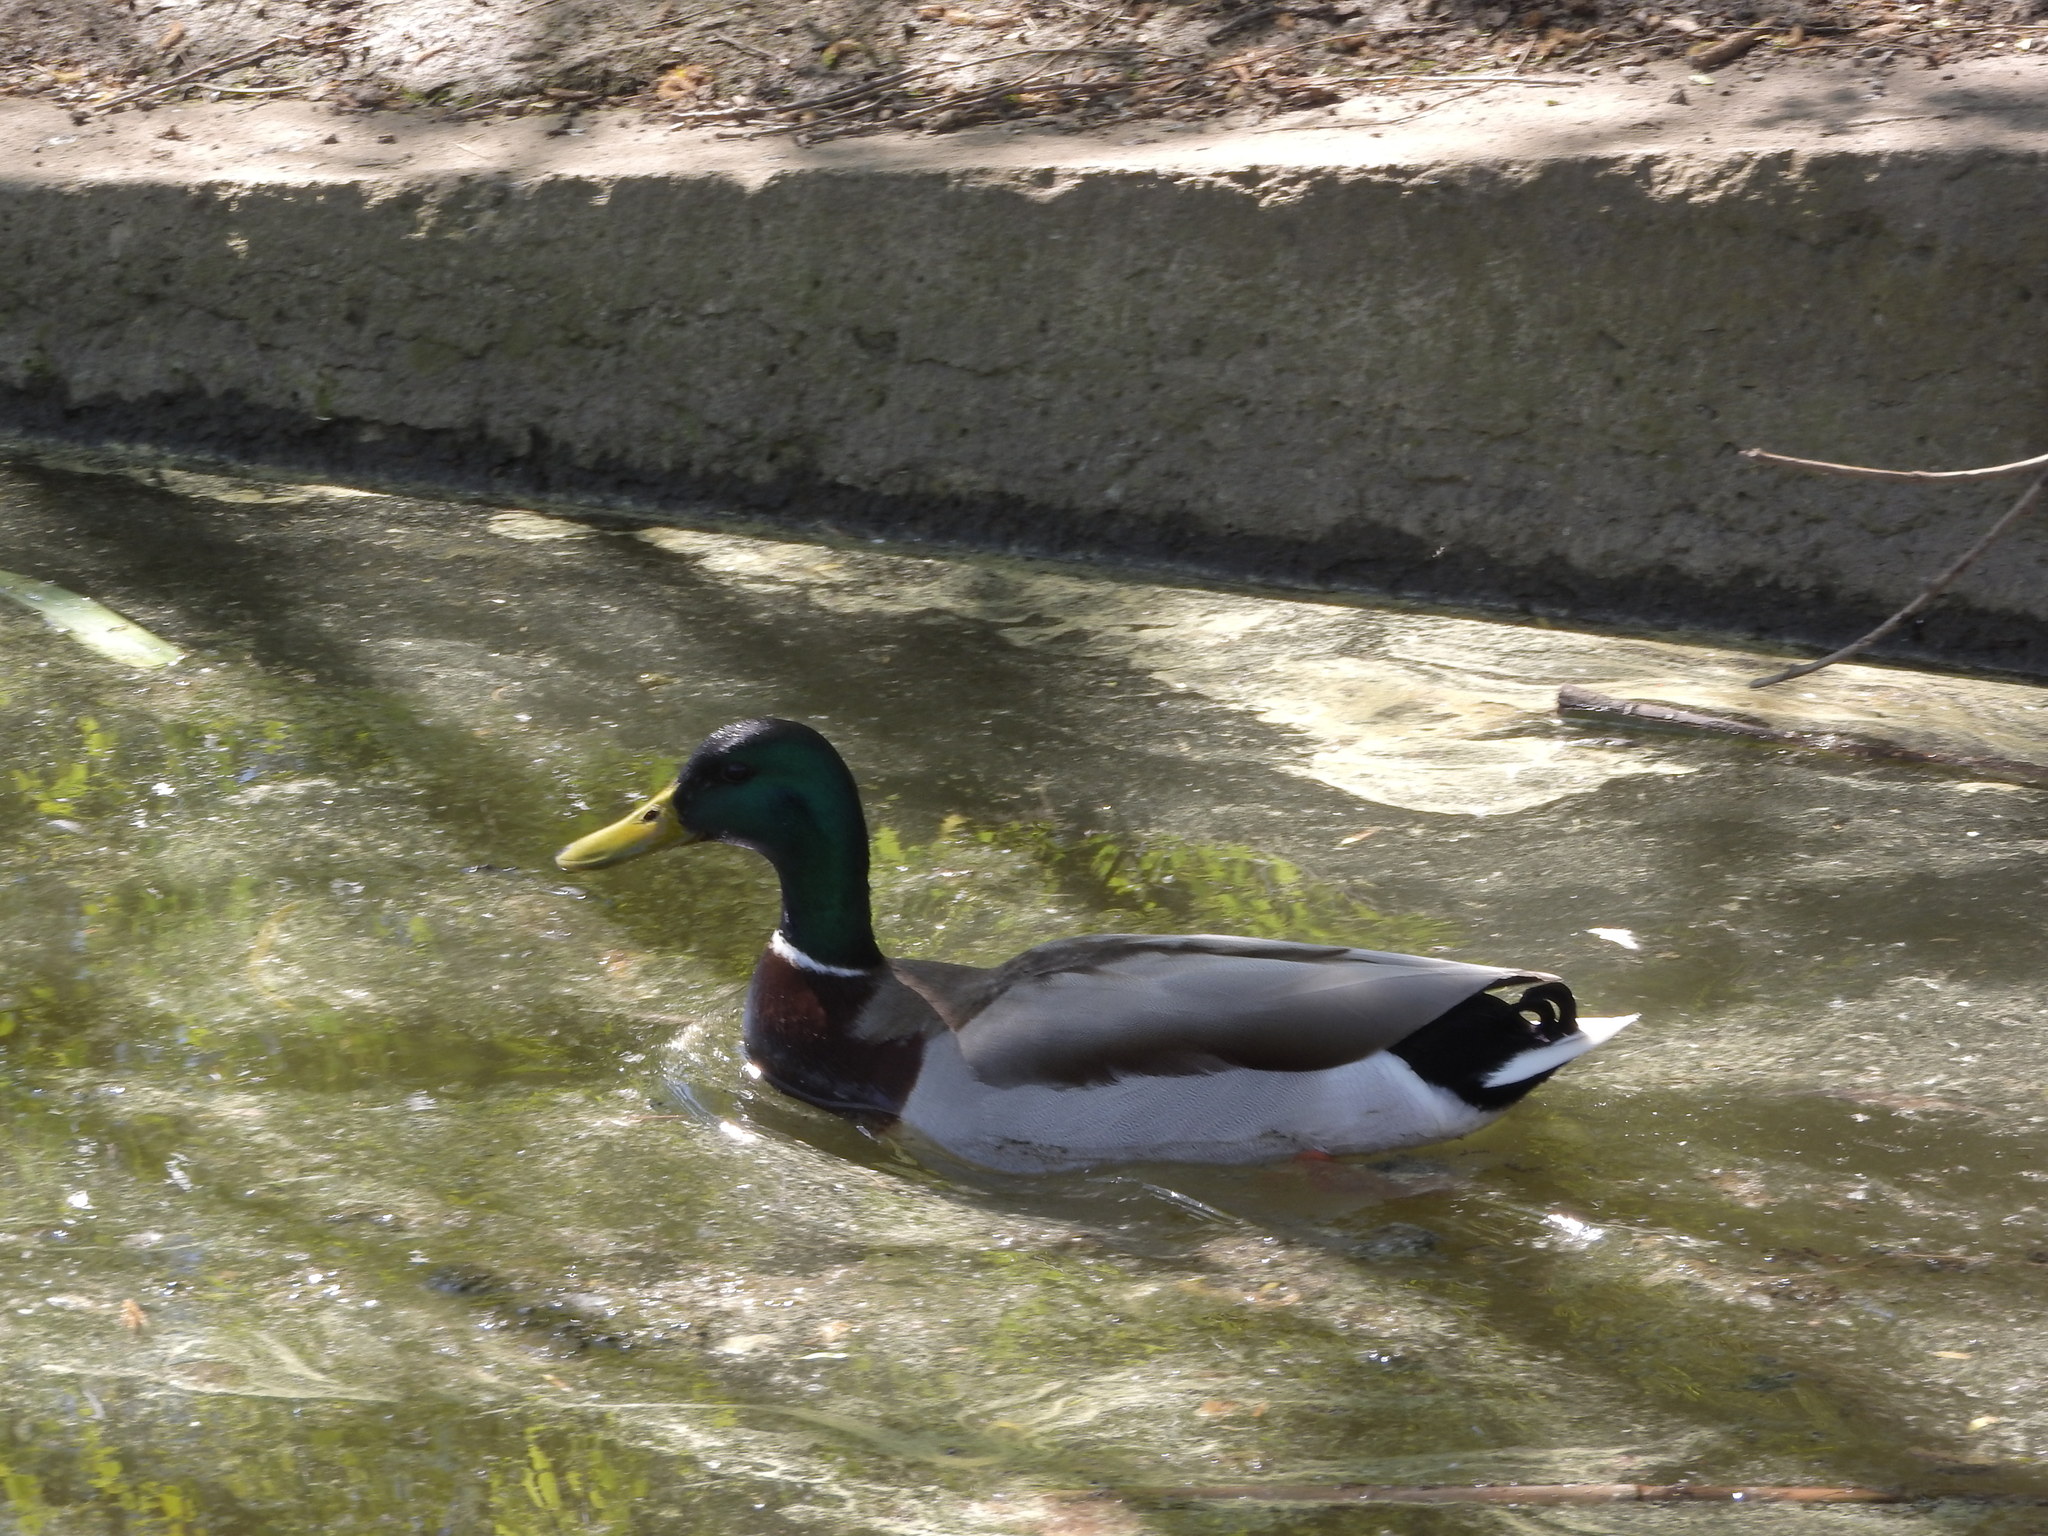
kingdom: Animalia
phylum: Chordata
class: Aves
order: Anseriformes
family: Anatidae
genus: Anas
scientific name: Anas platyrhynchos
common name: Mallard
